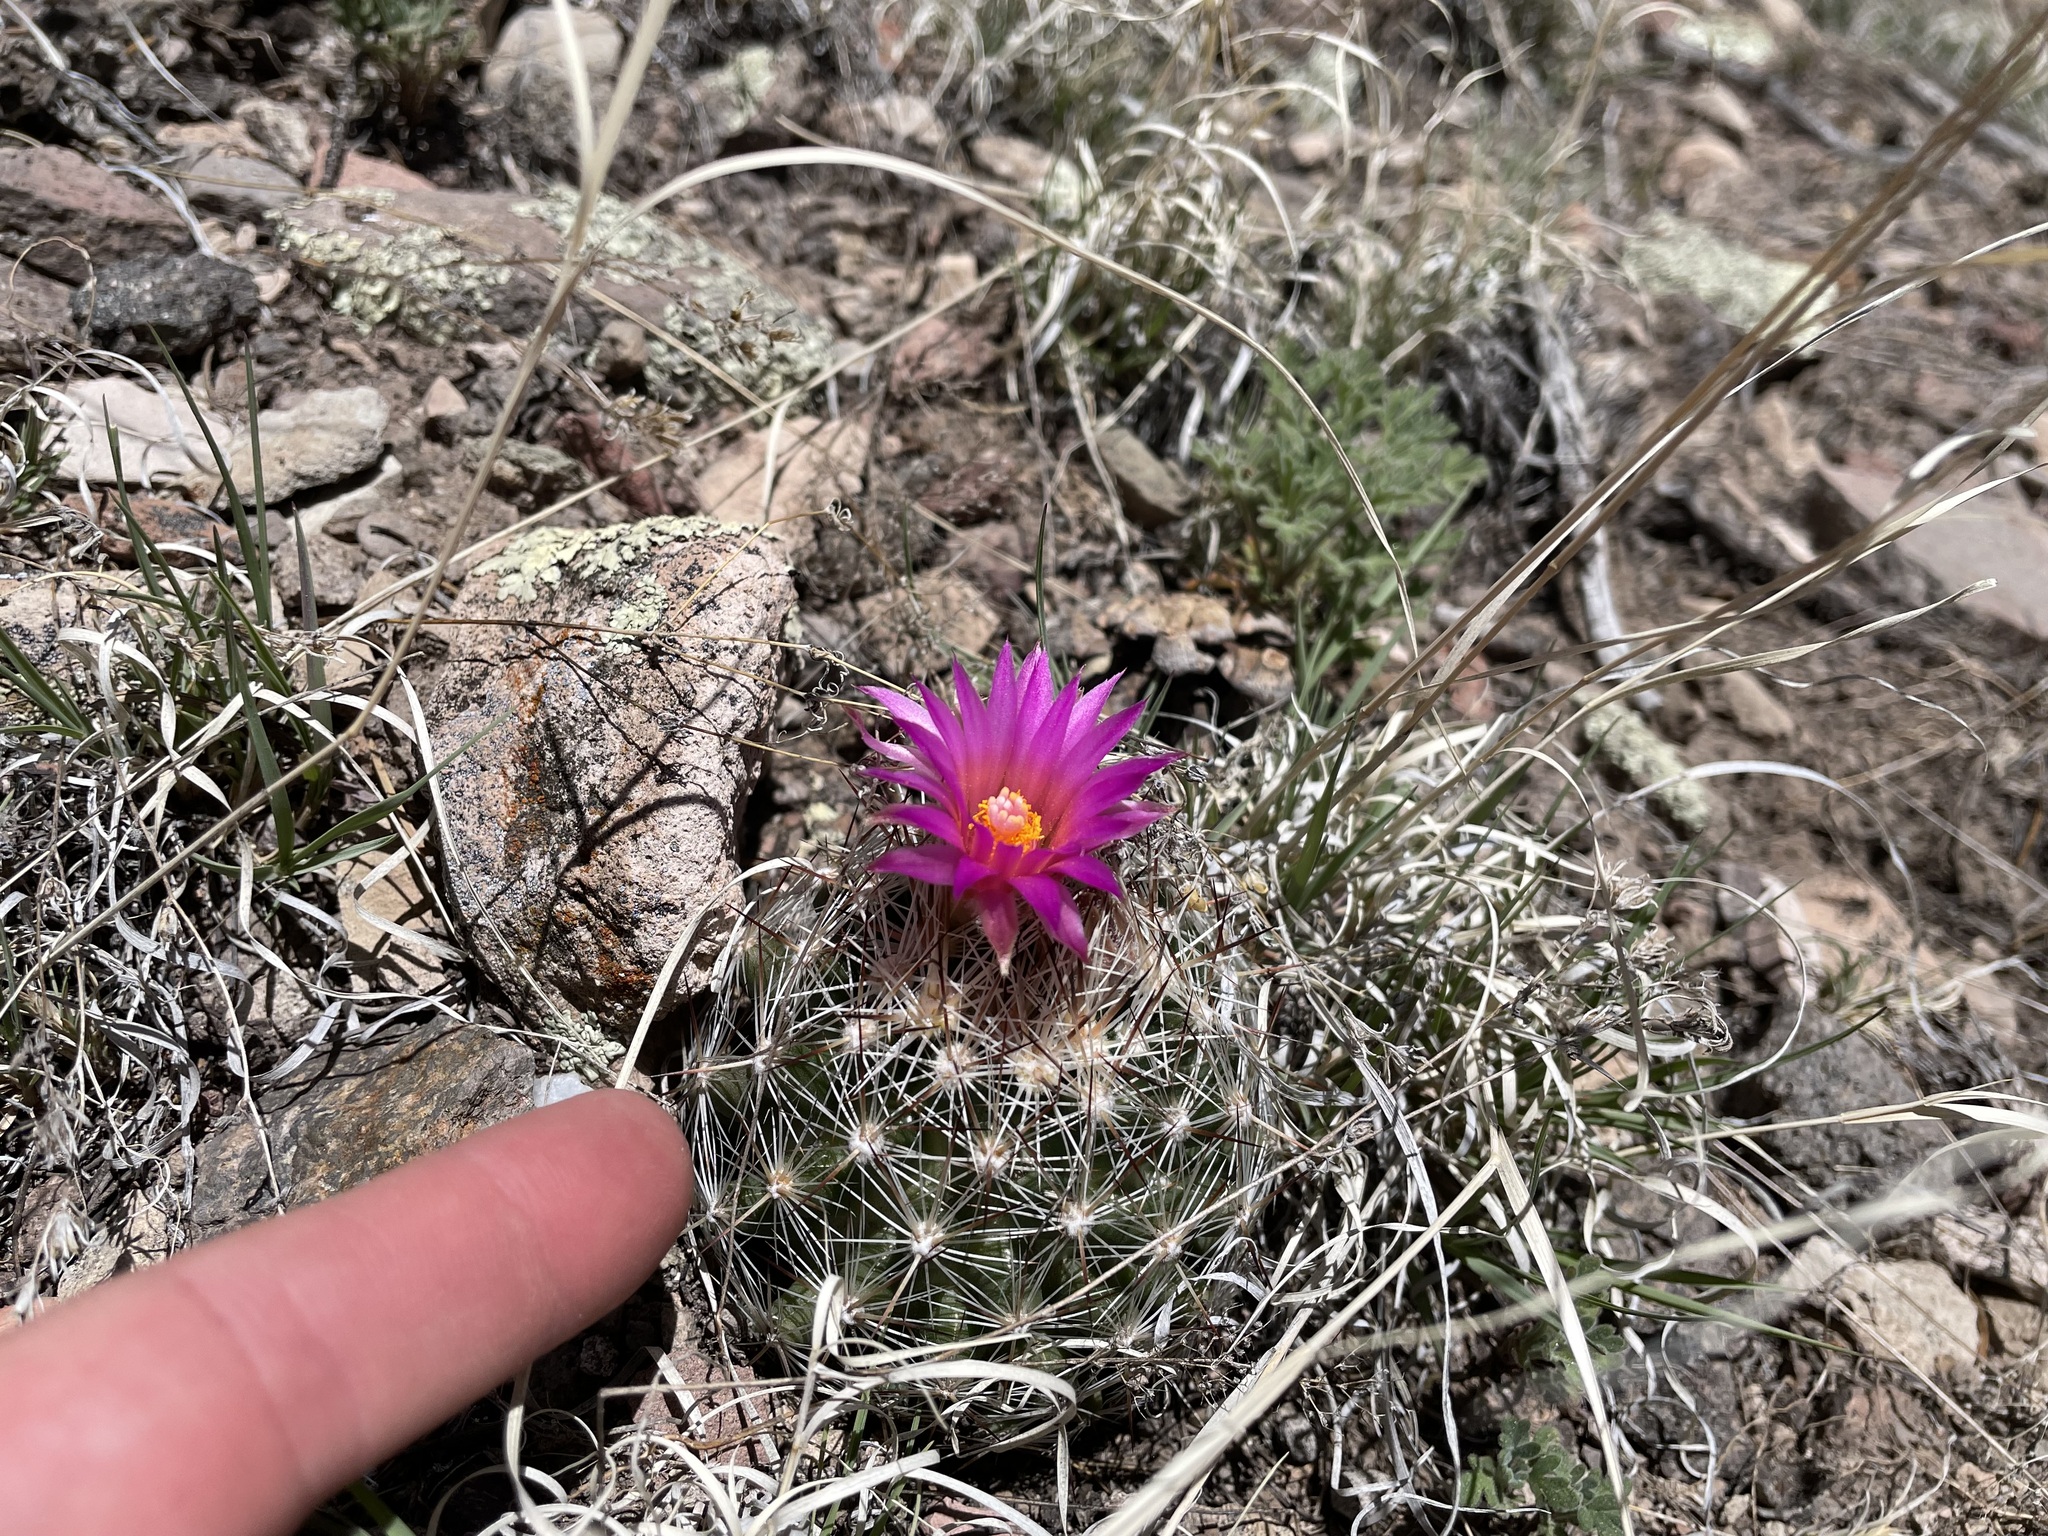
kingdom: Plantae
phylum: Tracheophyta
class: Magnoliopsida
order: Caryophyllales
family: Cactaceae
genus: Pelecyphora
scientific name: Pelecyphora vivipara
